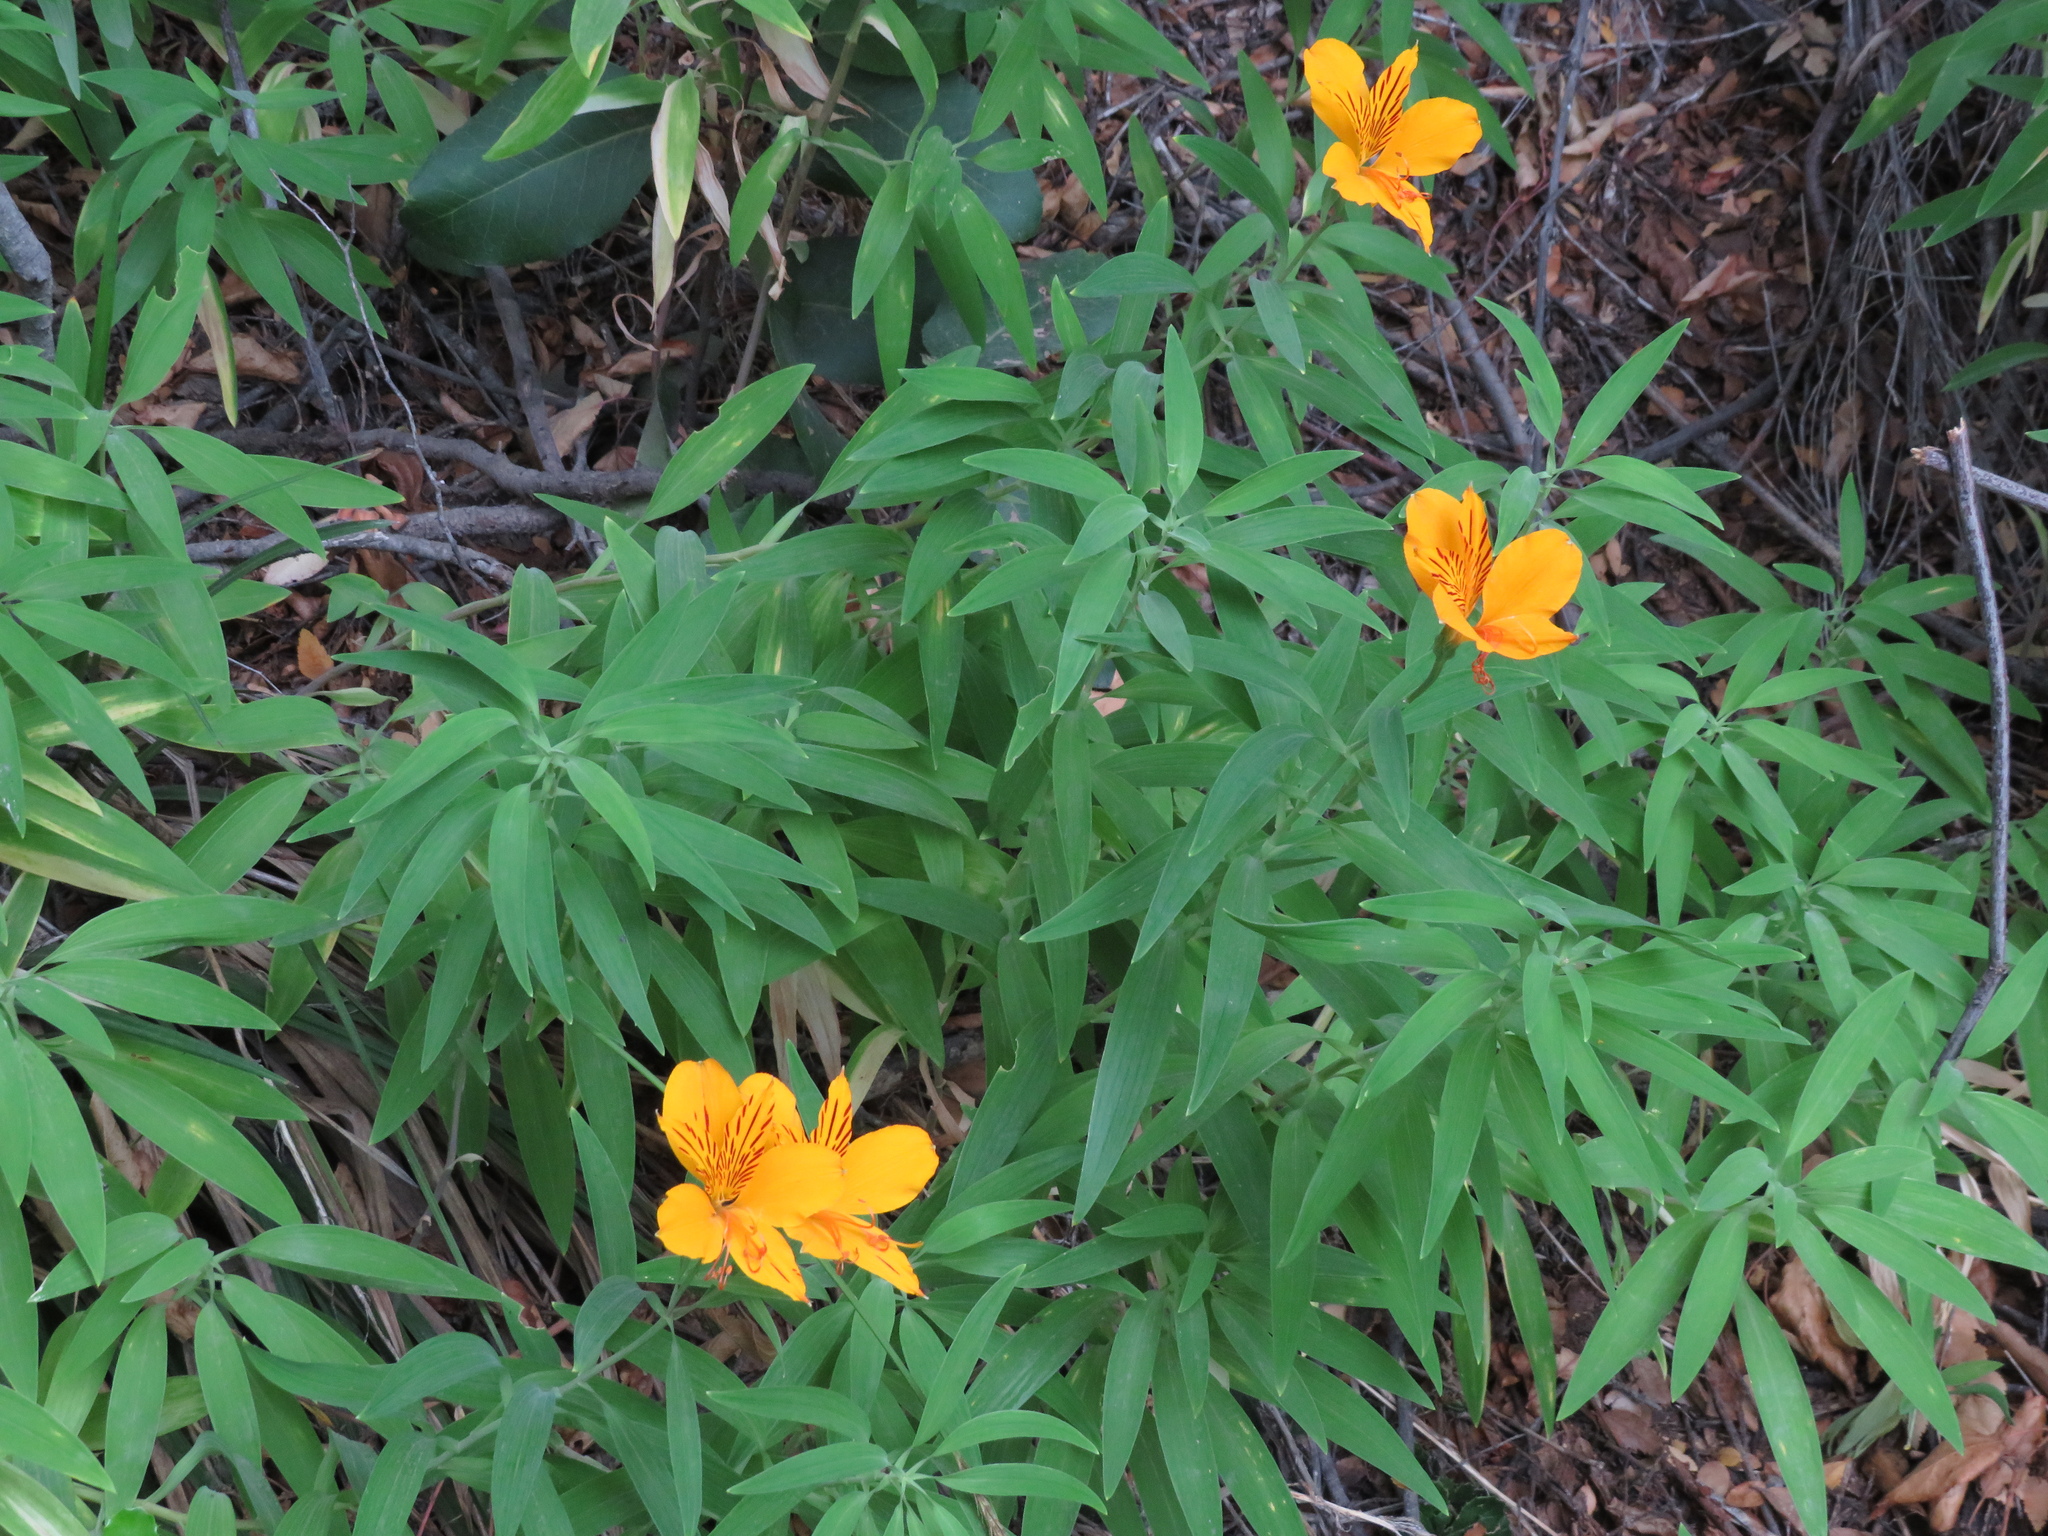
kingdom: Plantae
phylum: Tracheophyta
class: Liliopsida
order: Liliales
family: Alstroemeriaceae
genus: Alstroemeria
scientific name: Alstroemeria aurea
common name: Peruvian lily
